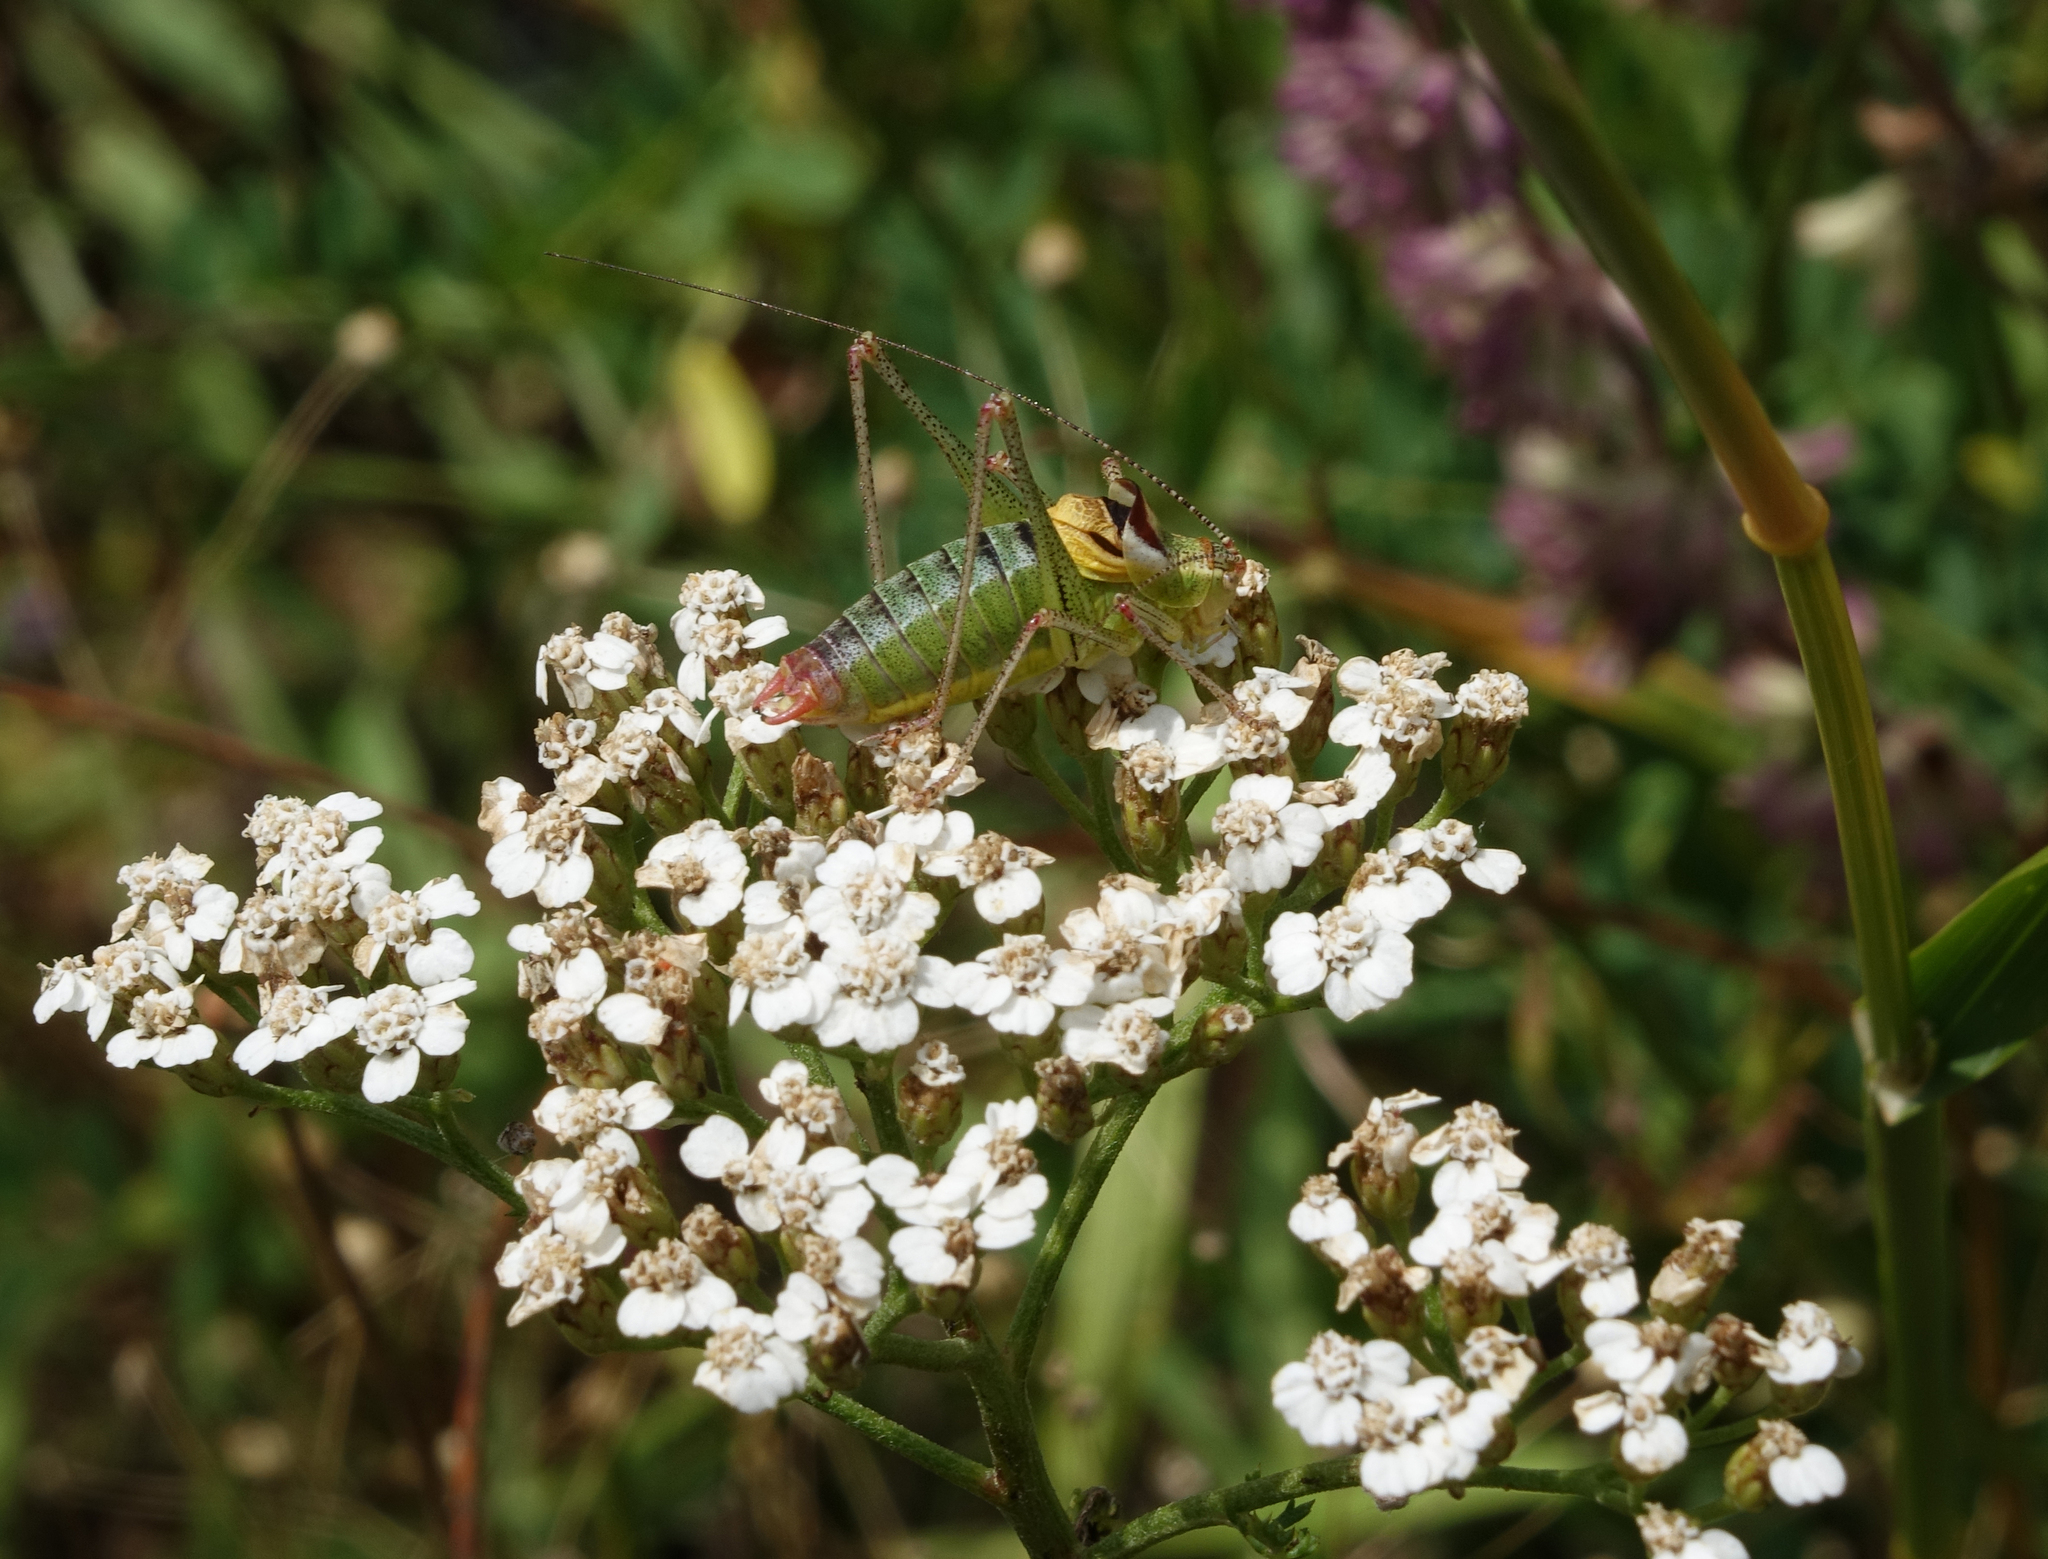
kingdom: Plantae
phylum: Tracheophyta
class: Magnoliopsida
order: Asterales
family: Asteraceae
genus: Achillea
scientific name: Achillea millefolium
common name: Yarrow
